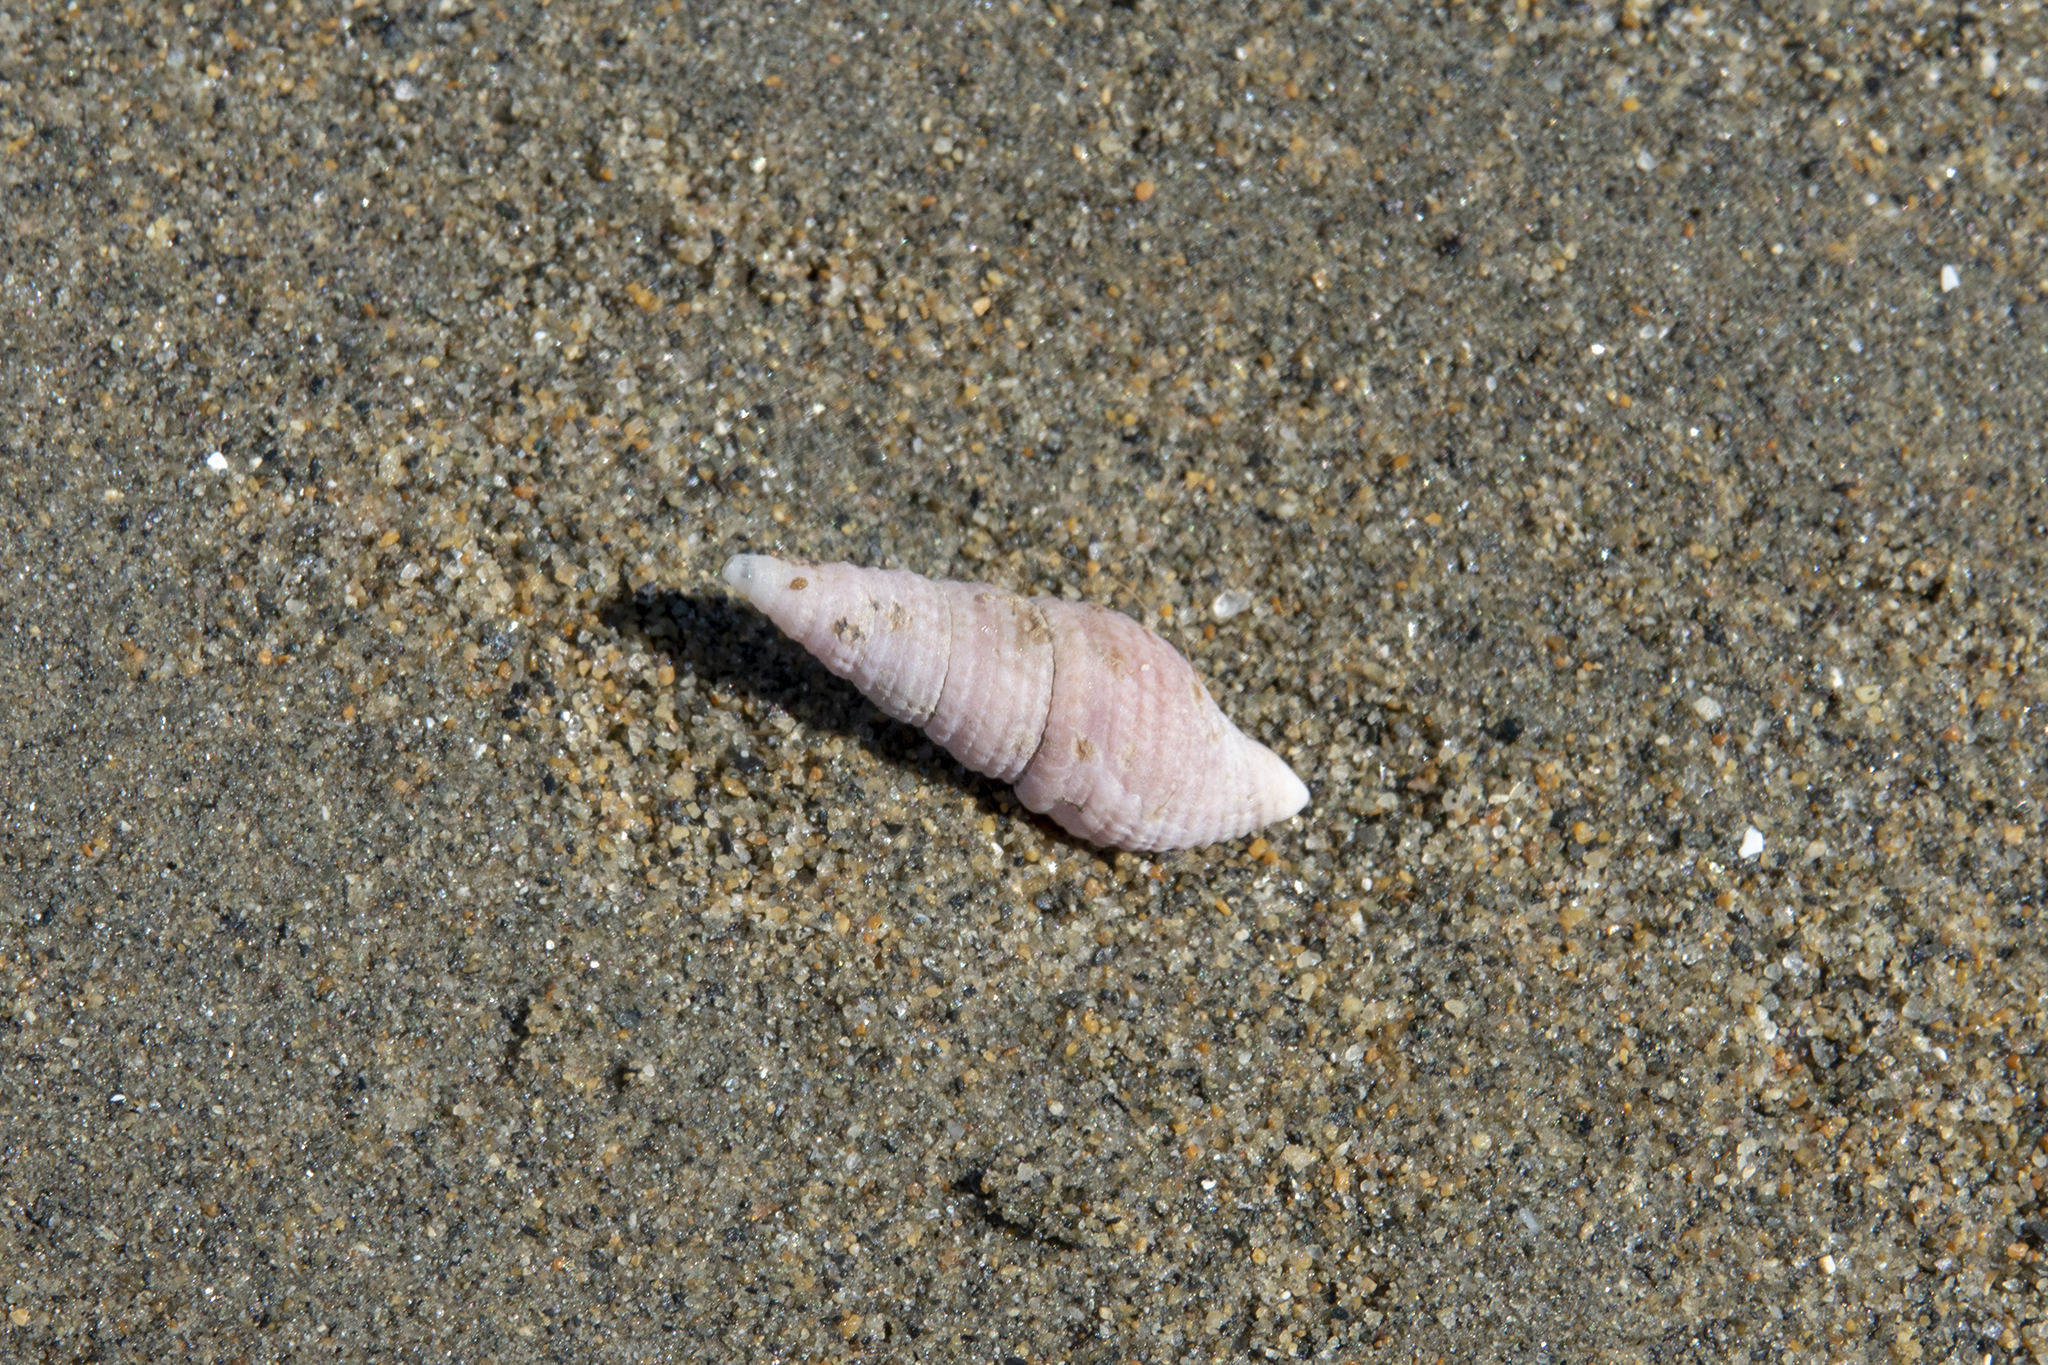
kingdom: Animalia
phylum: Mollusca
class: Gastropoda
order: Neogastropoda
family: Borsoniidae
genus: Phenatoma
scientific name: Phenatoma roseum
